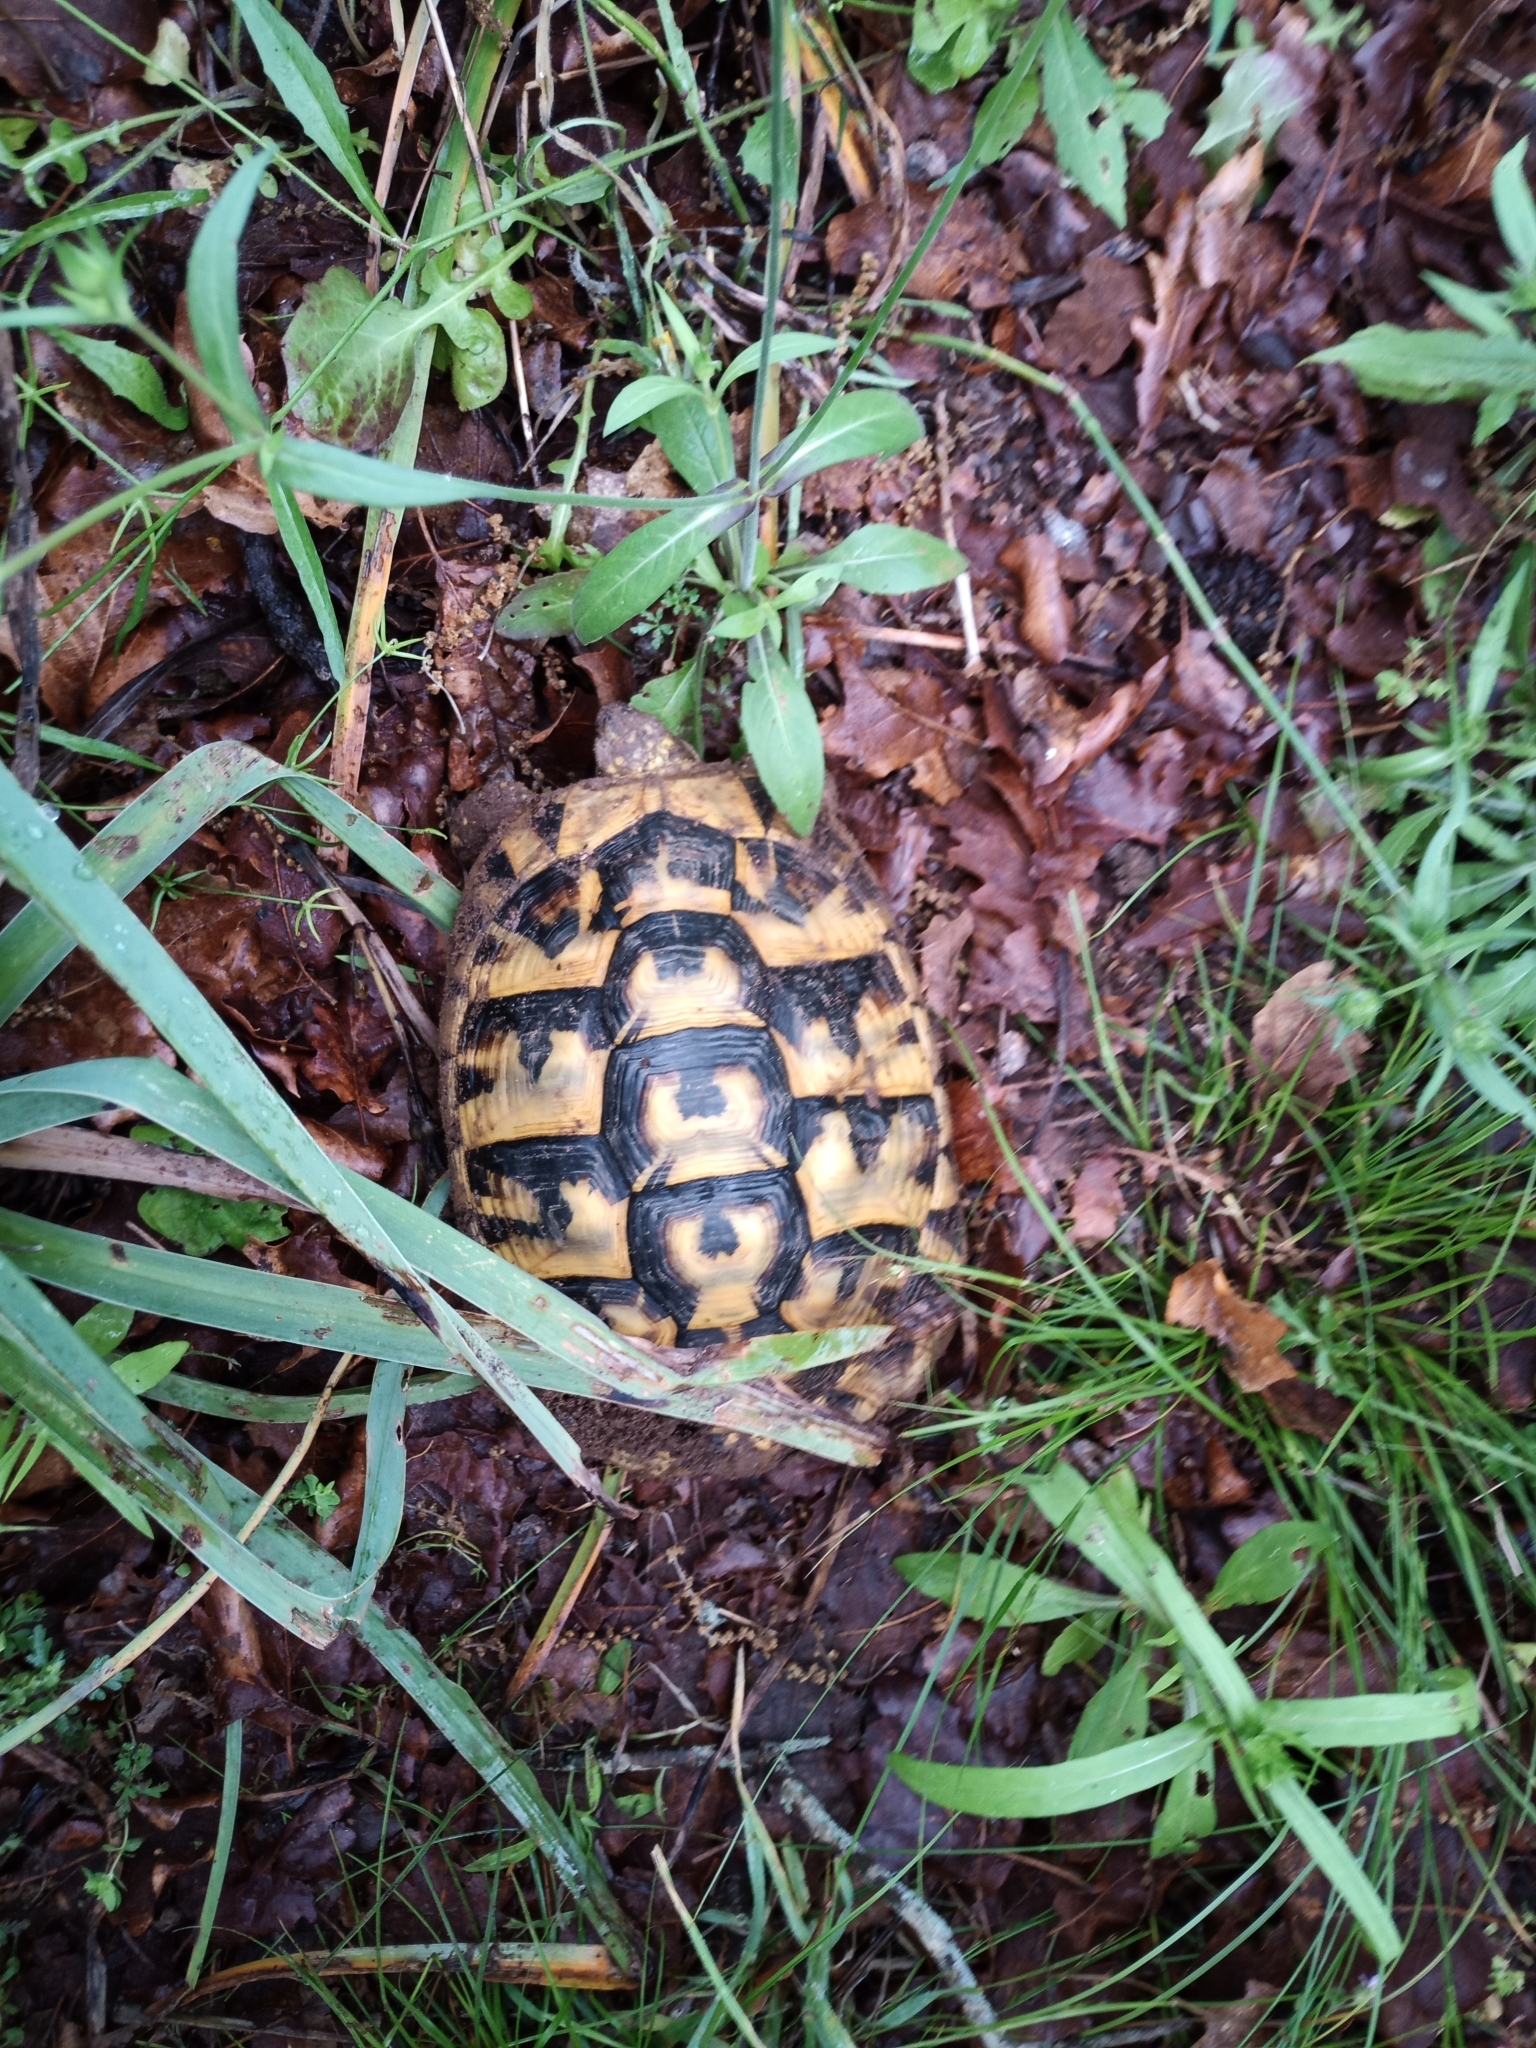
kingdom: Animalia
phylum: Chordata
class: Testudines
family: Testudinidae
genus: Testudo
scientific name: Testudo hermanni
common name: Hermann's tortoise
